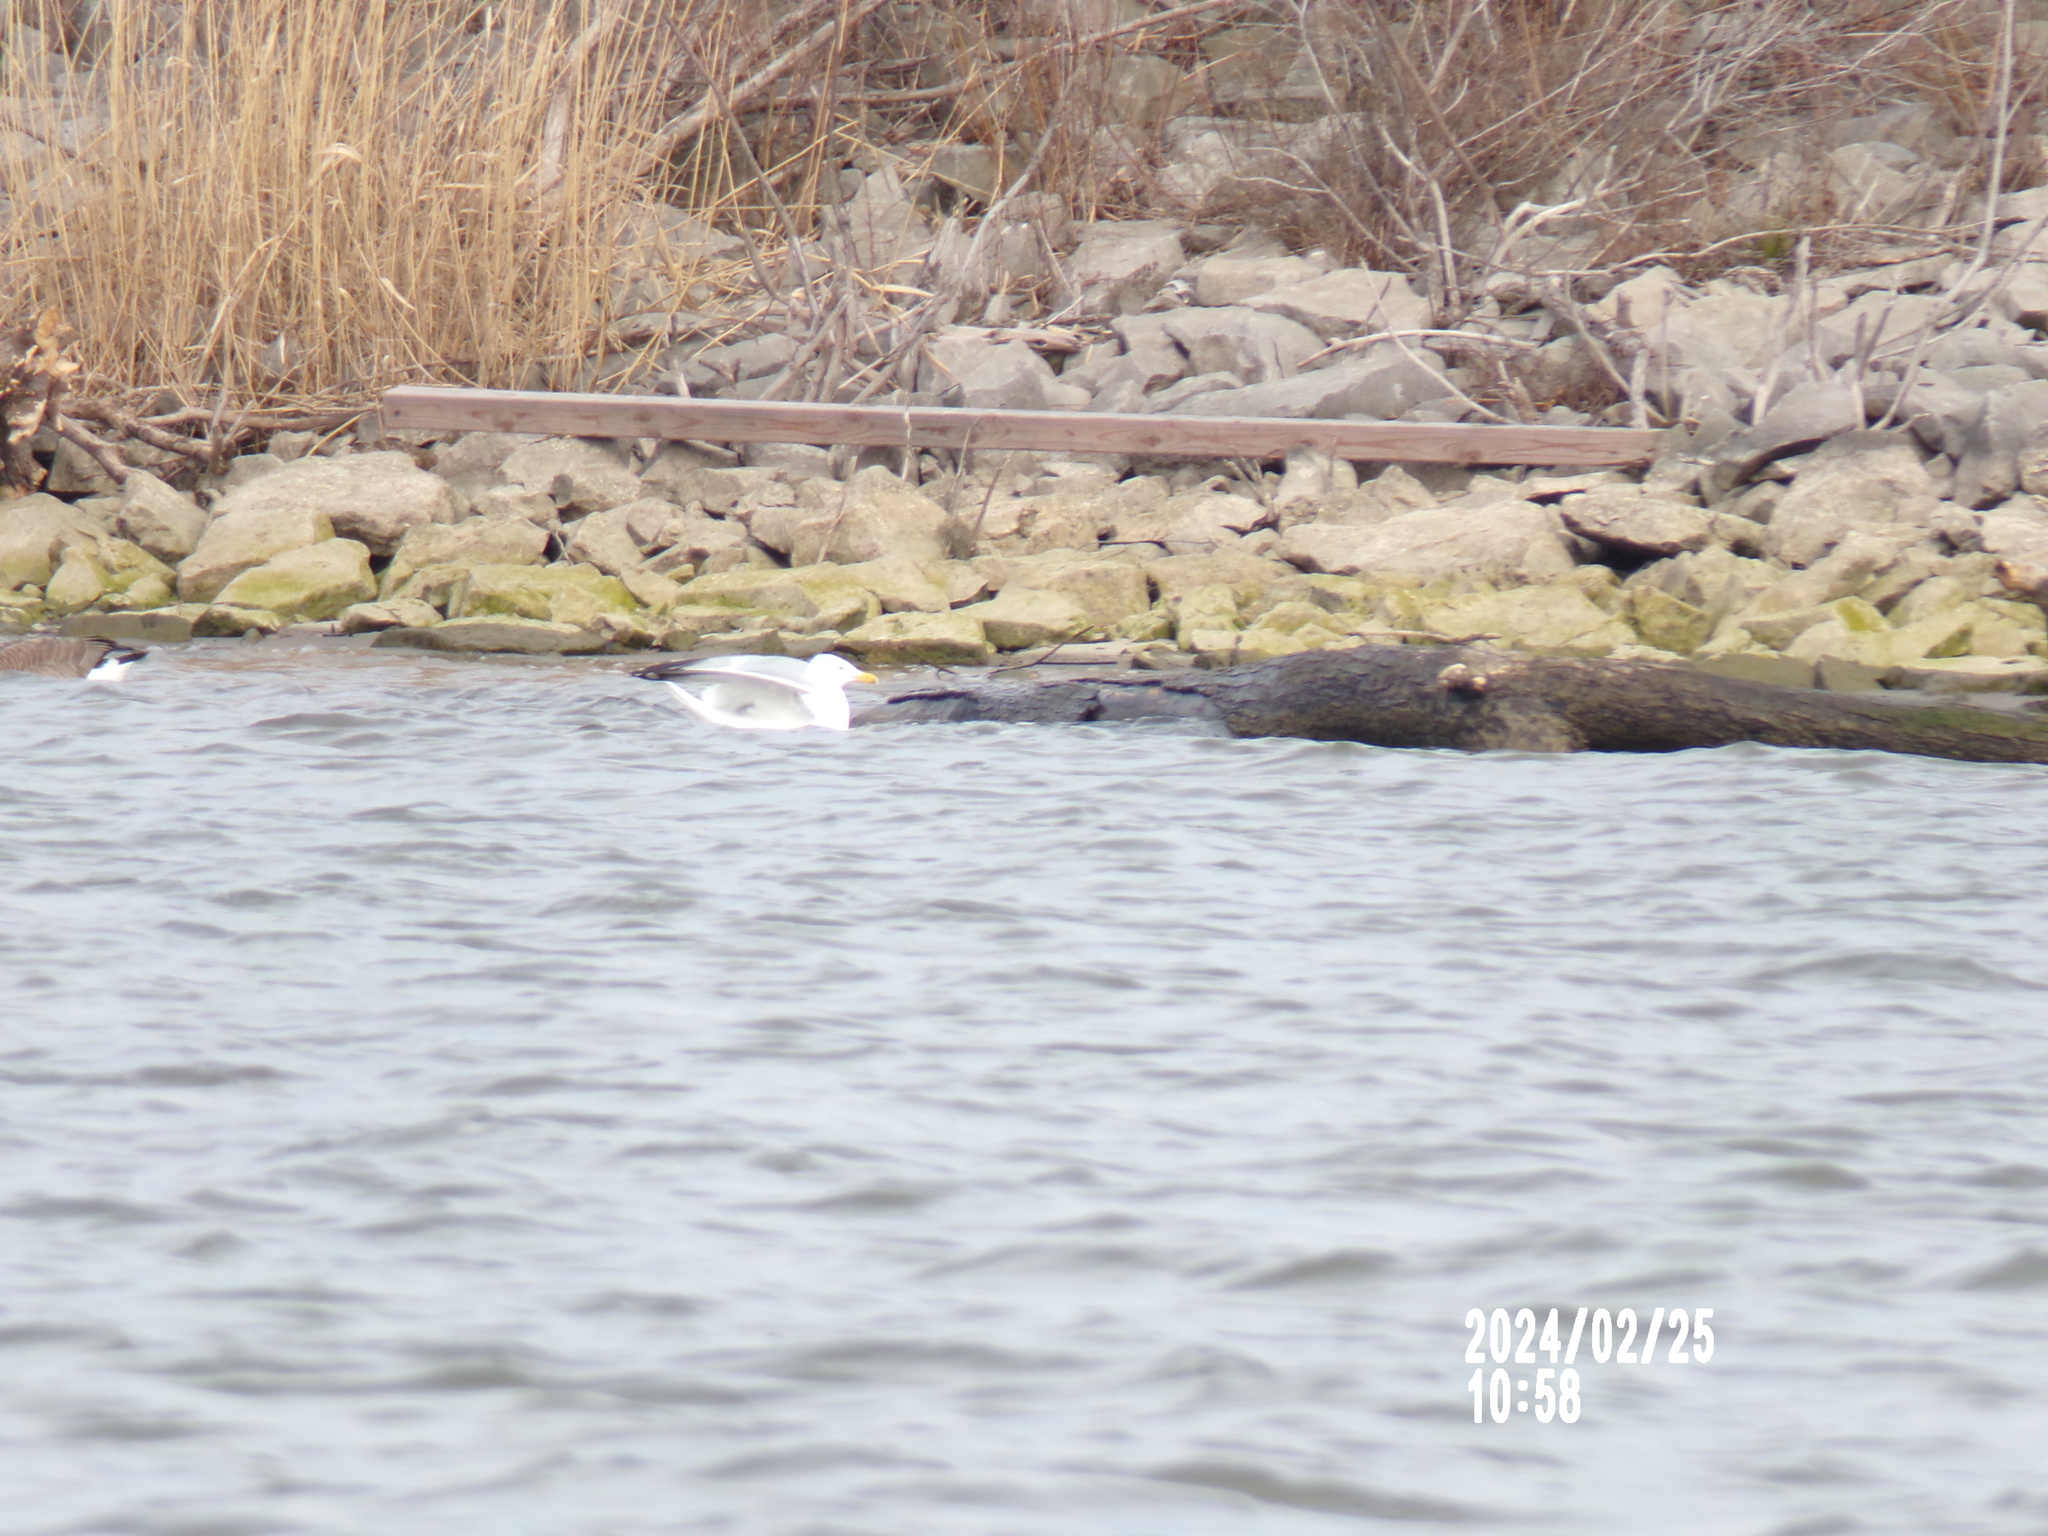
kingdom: Animalia
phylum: Chordata
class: Aves
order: Charadriiformes
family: Laridae
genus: Larus
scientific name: Larus smithsonianus
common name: American herring gull
